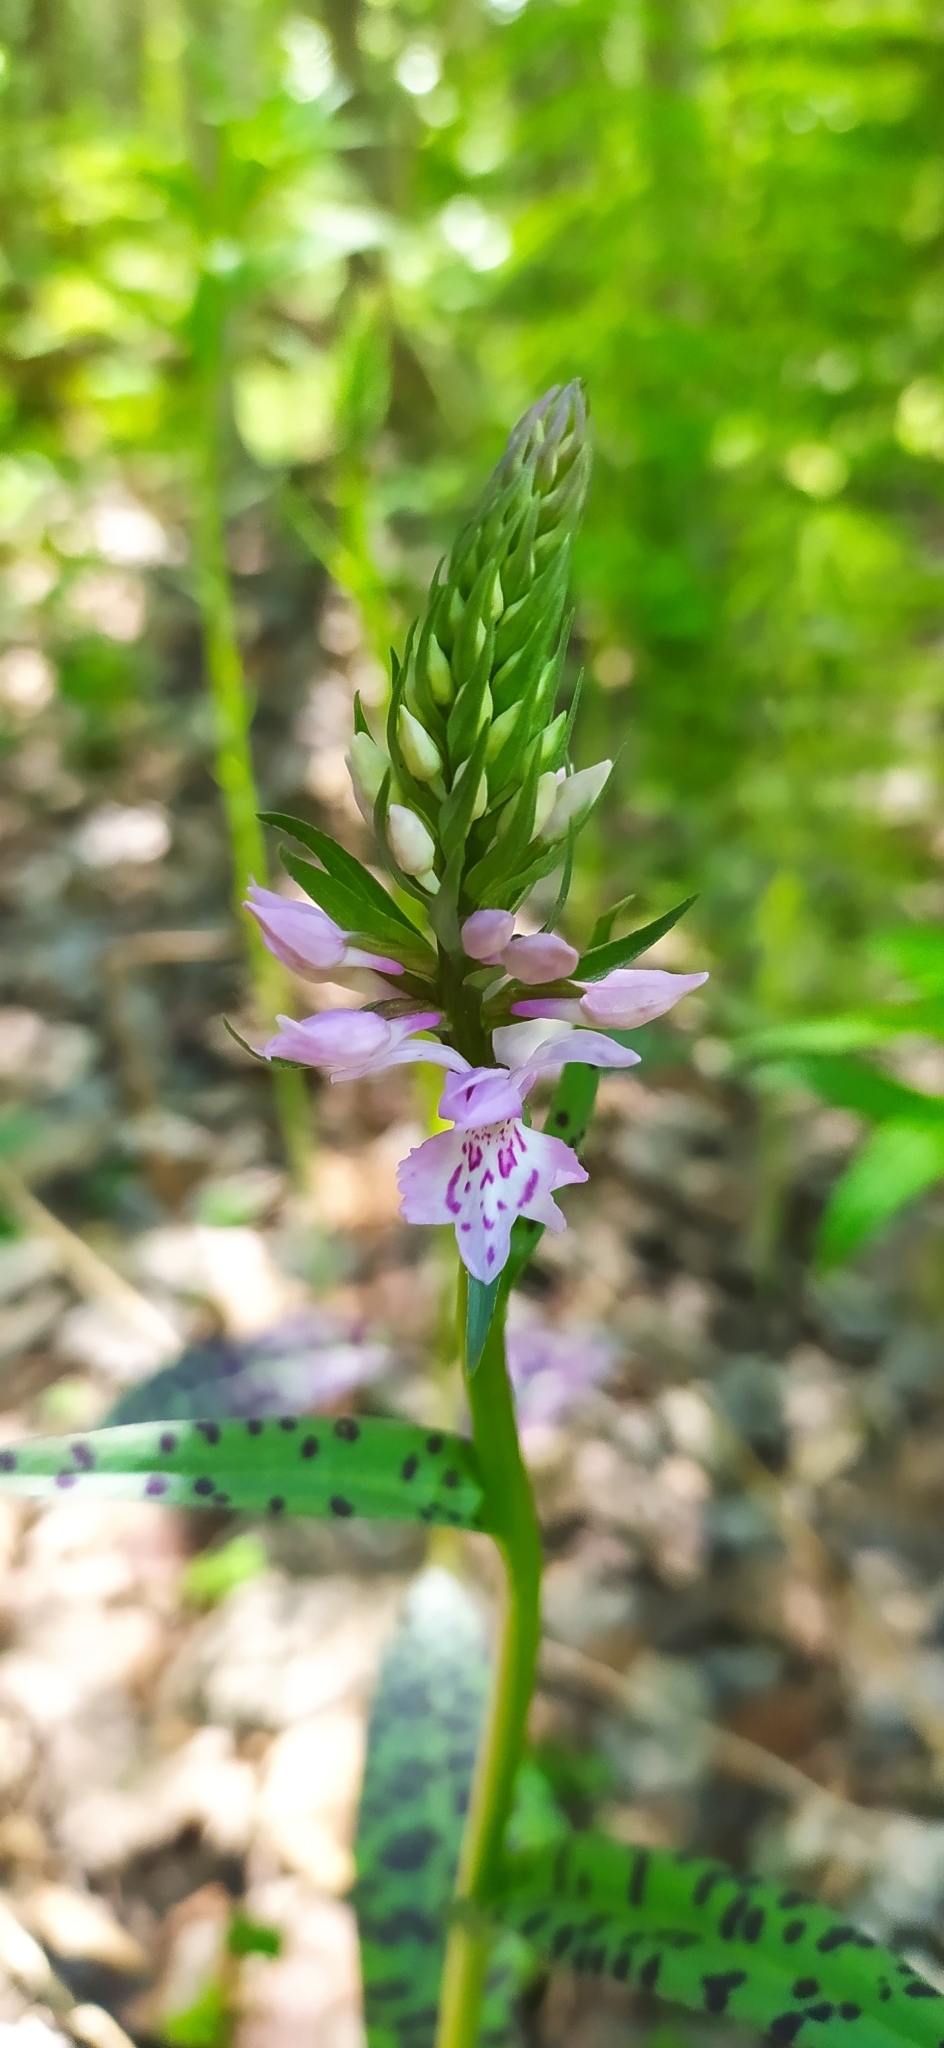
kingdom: Plantae
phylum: Tracheophyta
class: Liliopsida
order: Asparagales
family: Orchidaceae
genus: Dactylorhiza
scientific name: Dactylorhiza maculata
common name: Heath spotted-orchid
